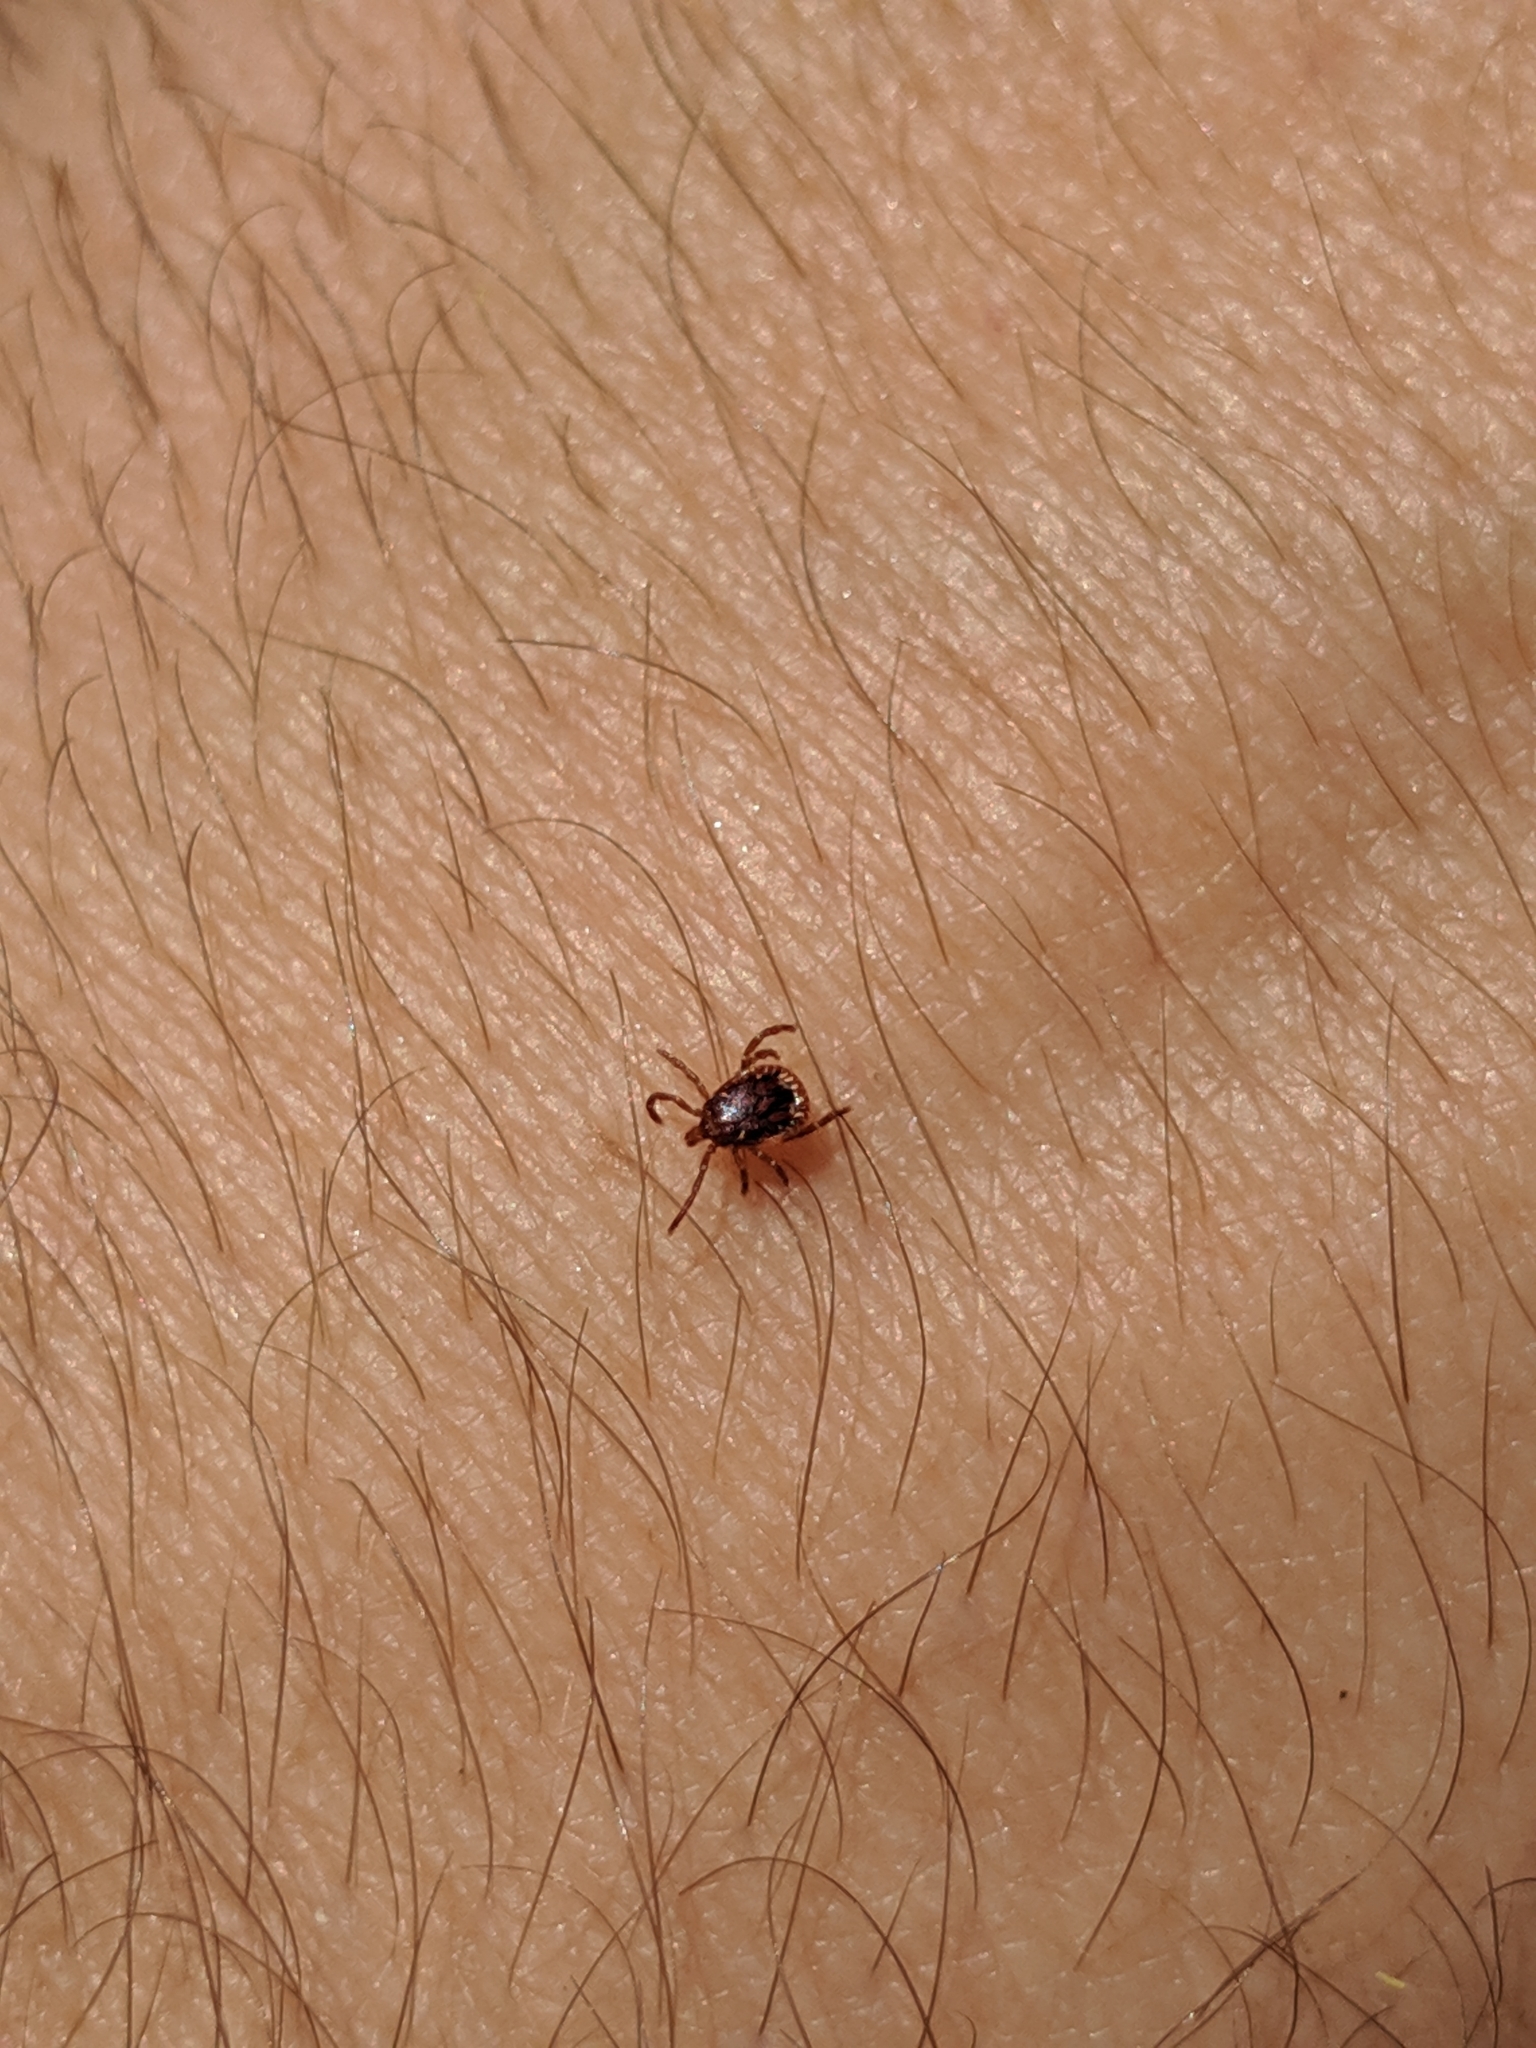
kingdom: Animalia
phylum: Arthropoda
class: Arachnida
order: Ixodida
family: Ixodidae
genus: Amblyomma
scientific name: Amblyomma americanum
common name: Lone star tick
